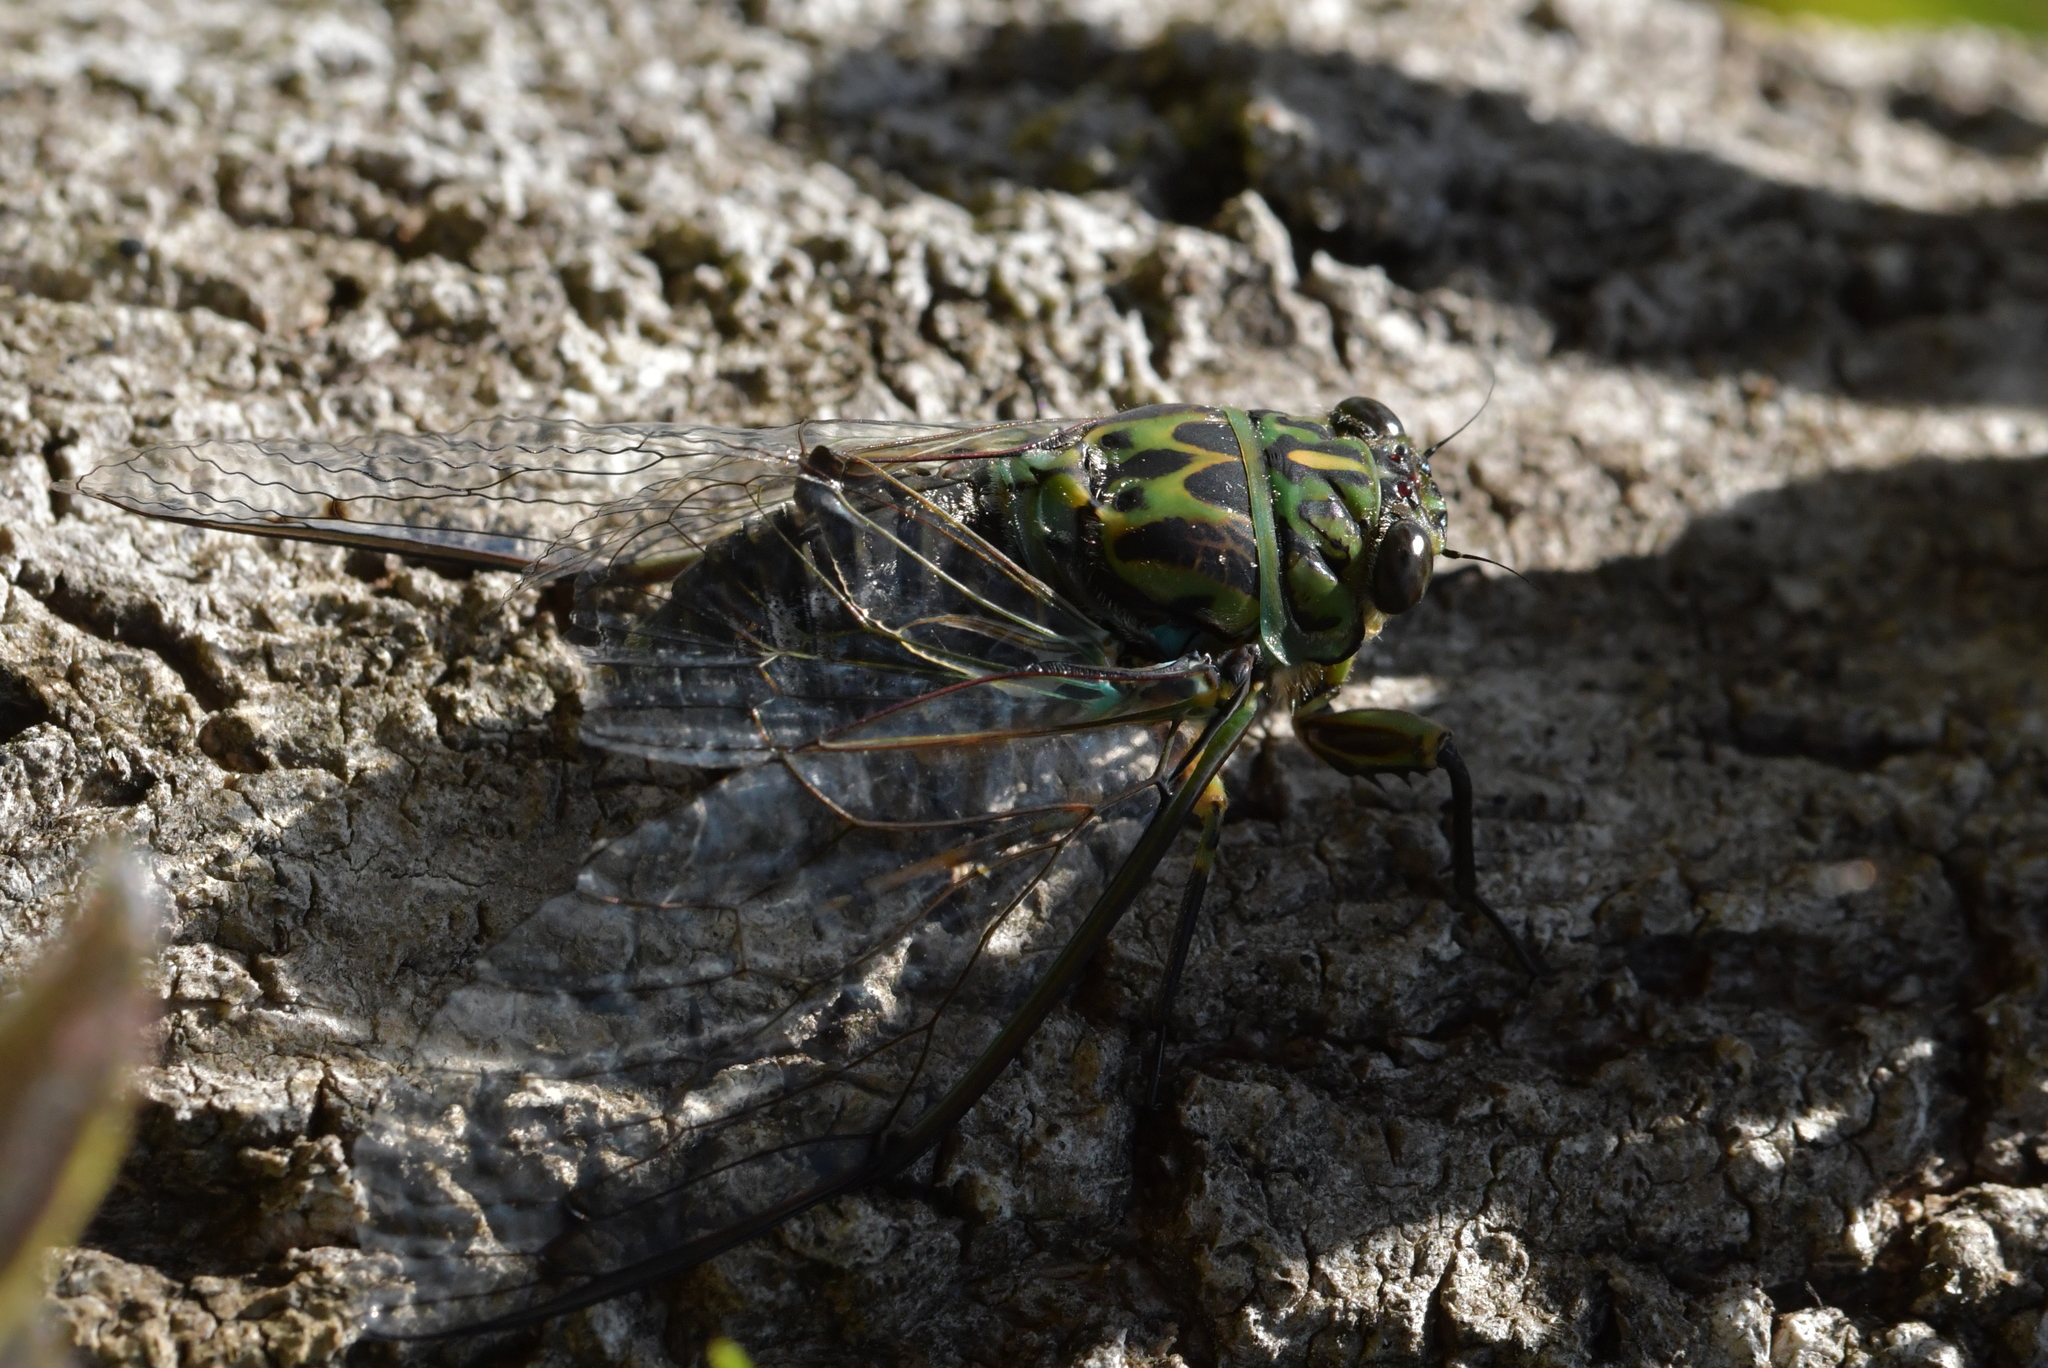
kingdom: Animalia
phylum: Arthropoda
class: Insecta
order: Hemiptera
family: Cicadidae
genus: Amphipsalta
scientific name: Amphipsalta zelandica
